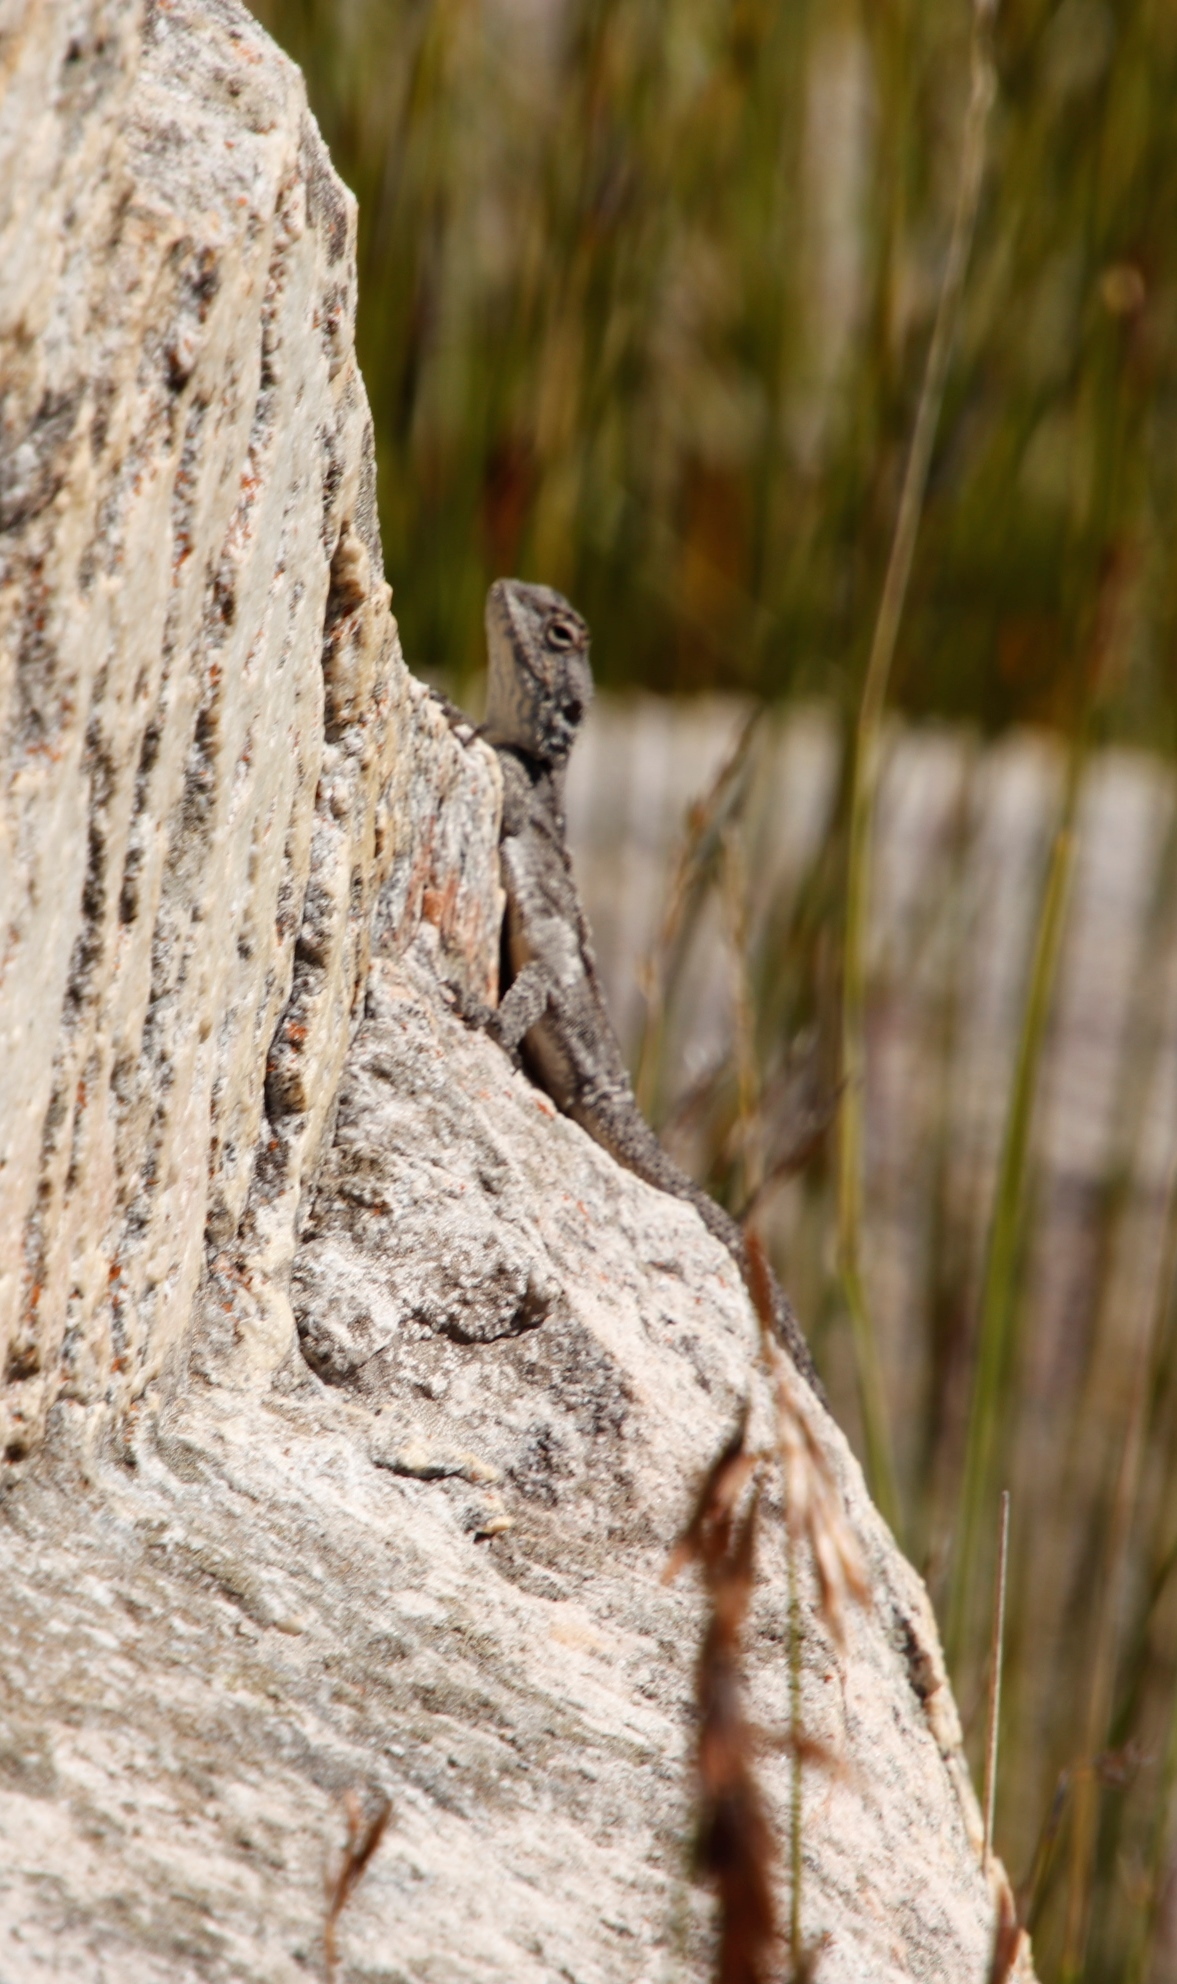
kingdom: Animalia
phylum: Chordata
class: Squamata
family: Agamidae
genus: Agama
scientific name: Agama atra
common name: Southern african rock agama
